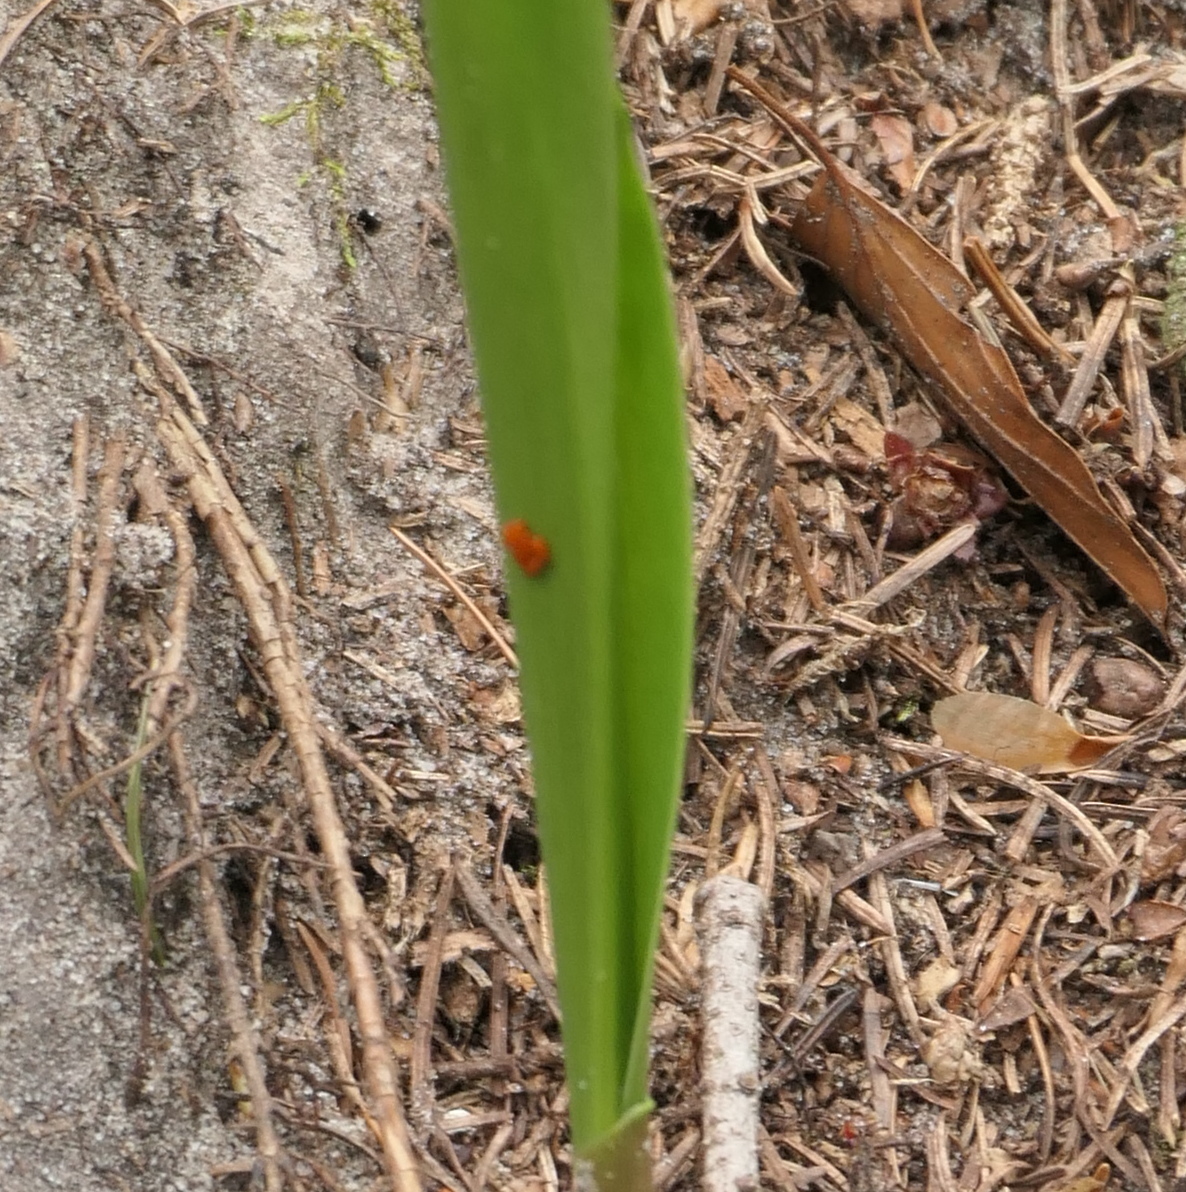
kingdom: Animalia
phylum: Arthropoda
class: Insecta
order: Coleoptera
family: Chrysomelidae
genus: Lilioceris
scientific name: Lilioceris lilii
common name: Lily beetle
